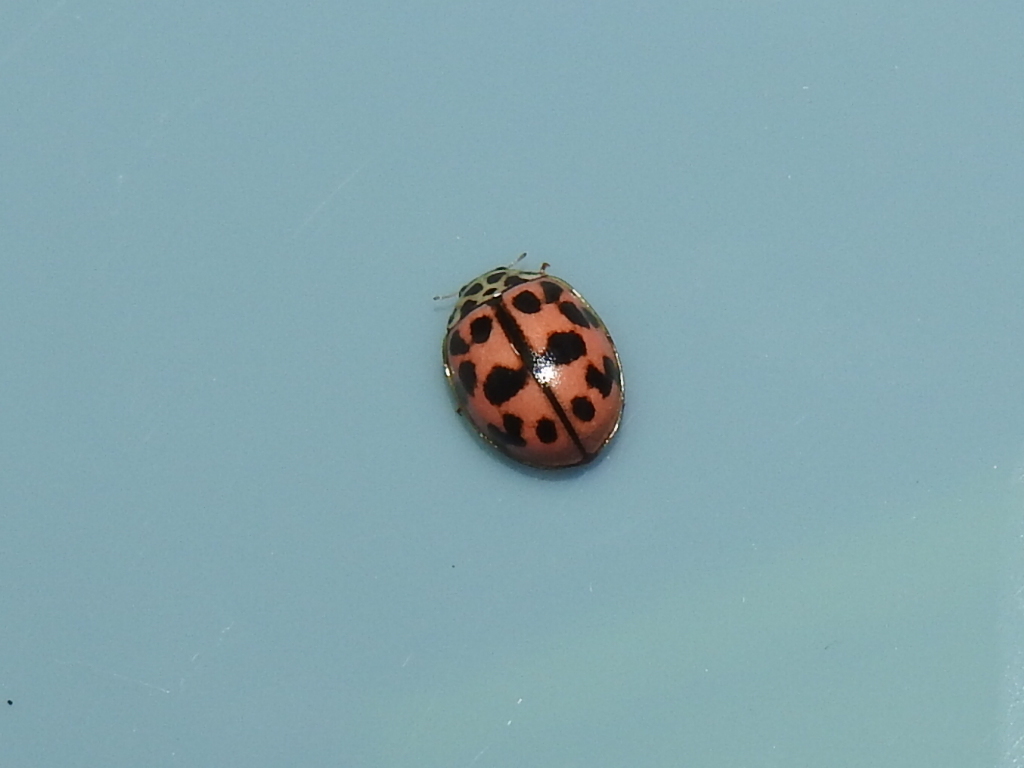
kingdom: Animalia
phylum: Arthropoda
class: Insecta
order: Coleoptera
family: Coccinellidae
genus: Oenopia
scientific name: Oenopia conglobata
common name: Ladybird beetle
